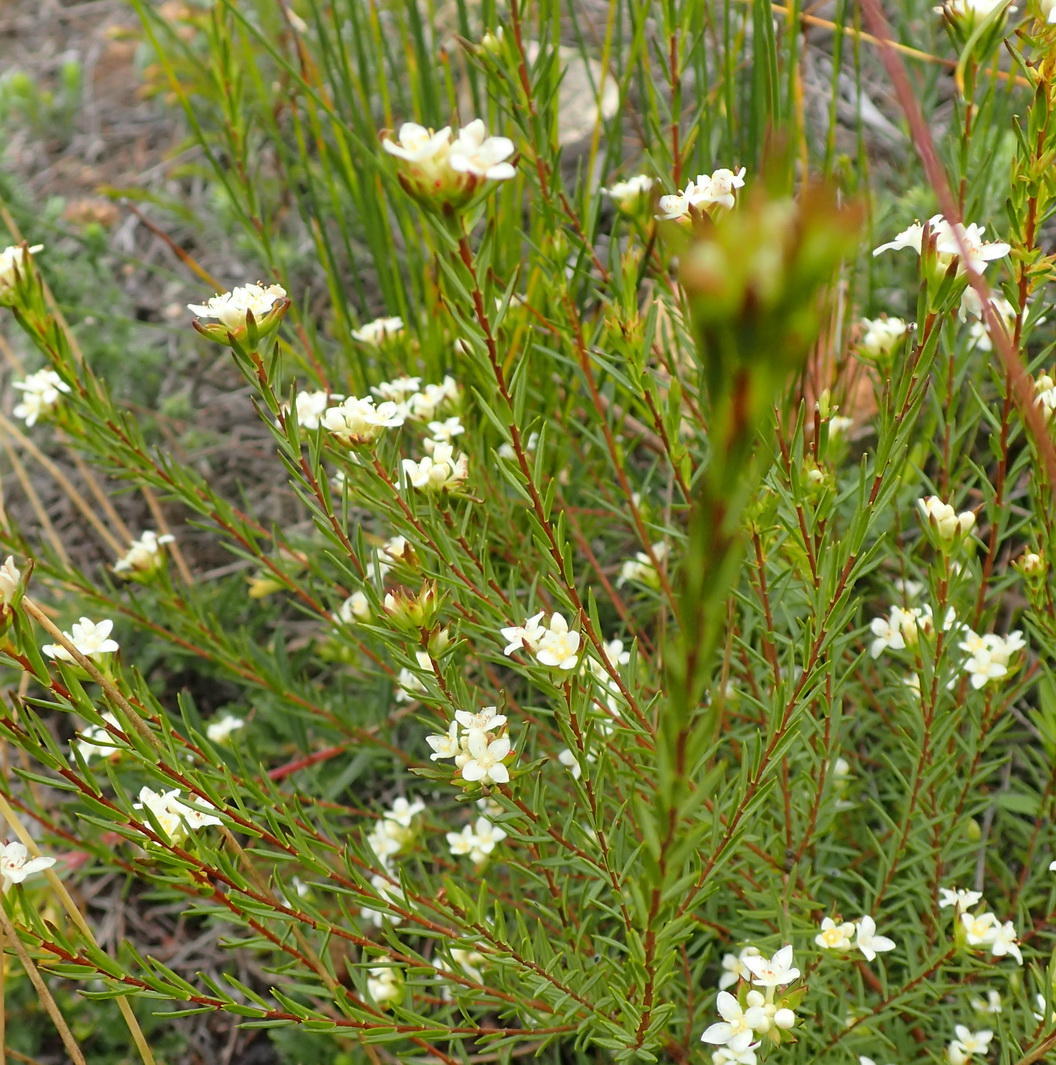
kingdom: Plantae
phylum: Tracheophyta
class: Magnoliopsida
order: Malvales
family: Thymelaeaceae
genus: Lachnaea
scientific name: Lachnaea diosmoides
